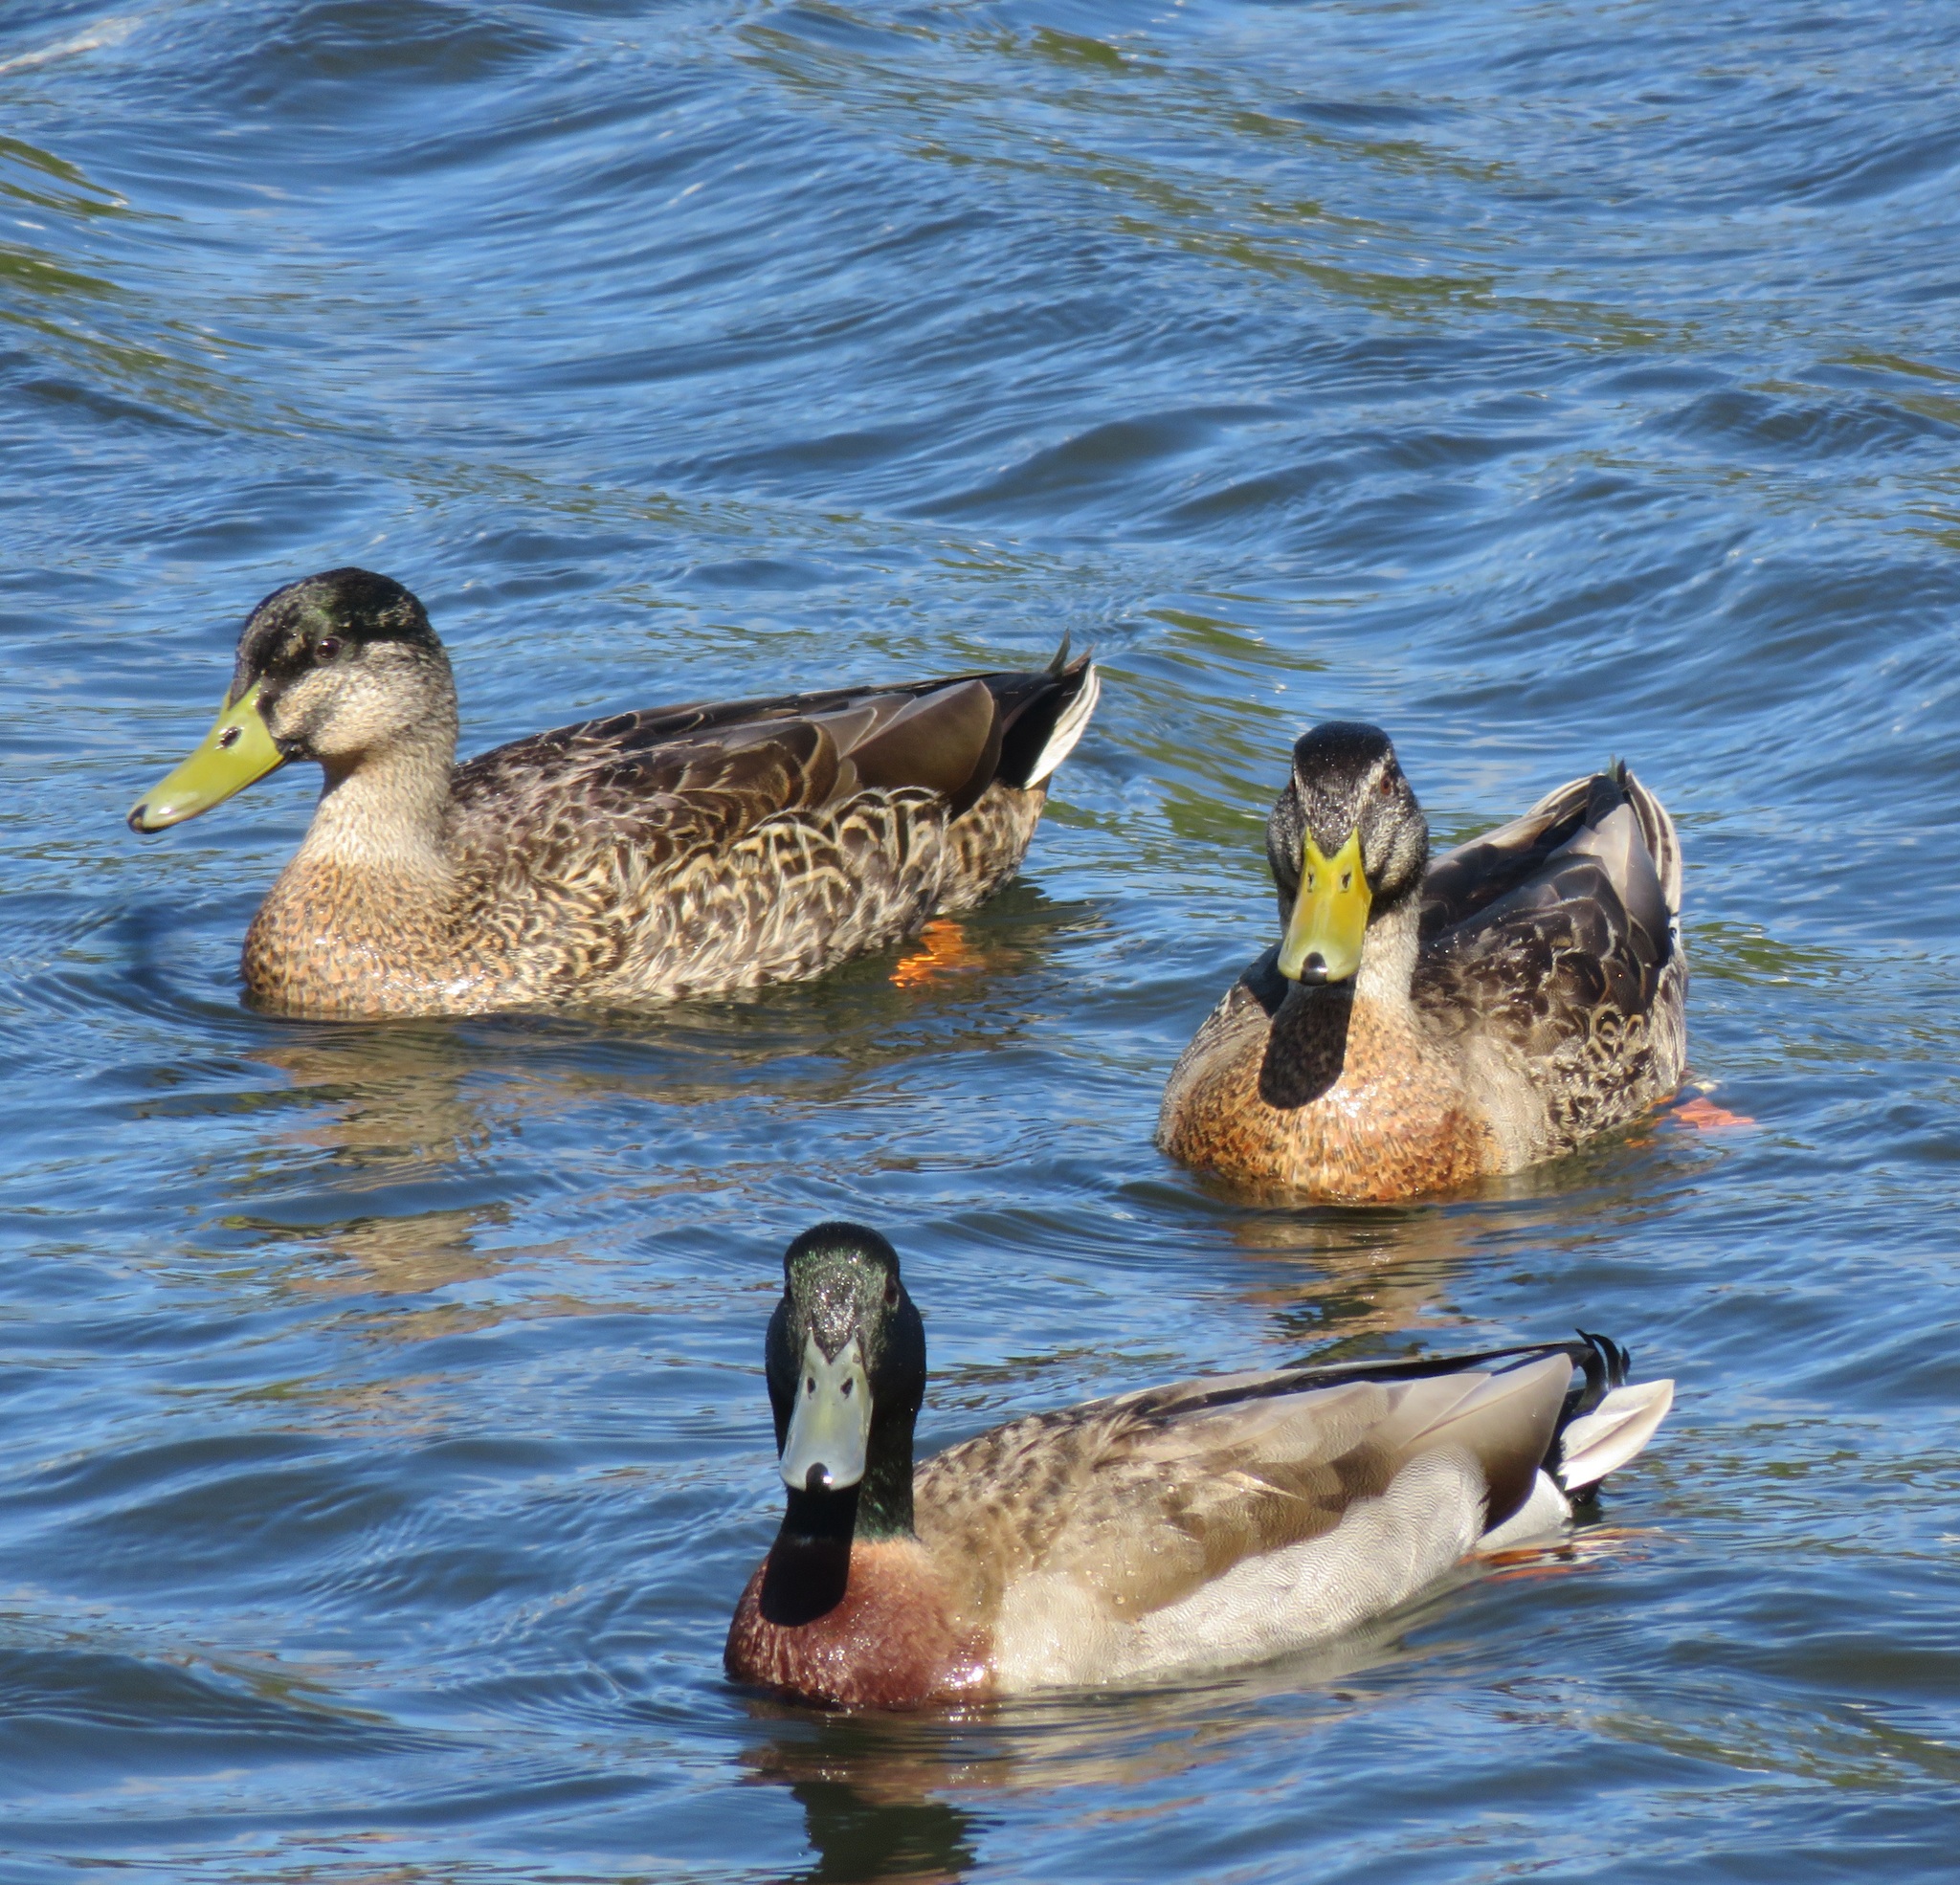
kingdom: Animalia
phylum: Chordata
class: Aves
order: Anseriformes
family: Anatidae
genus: Anas
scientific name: Anas
